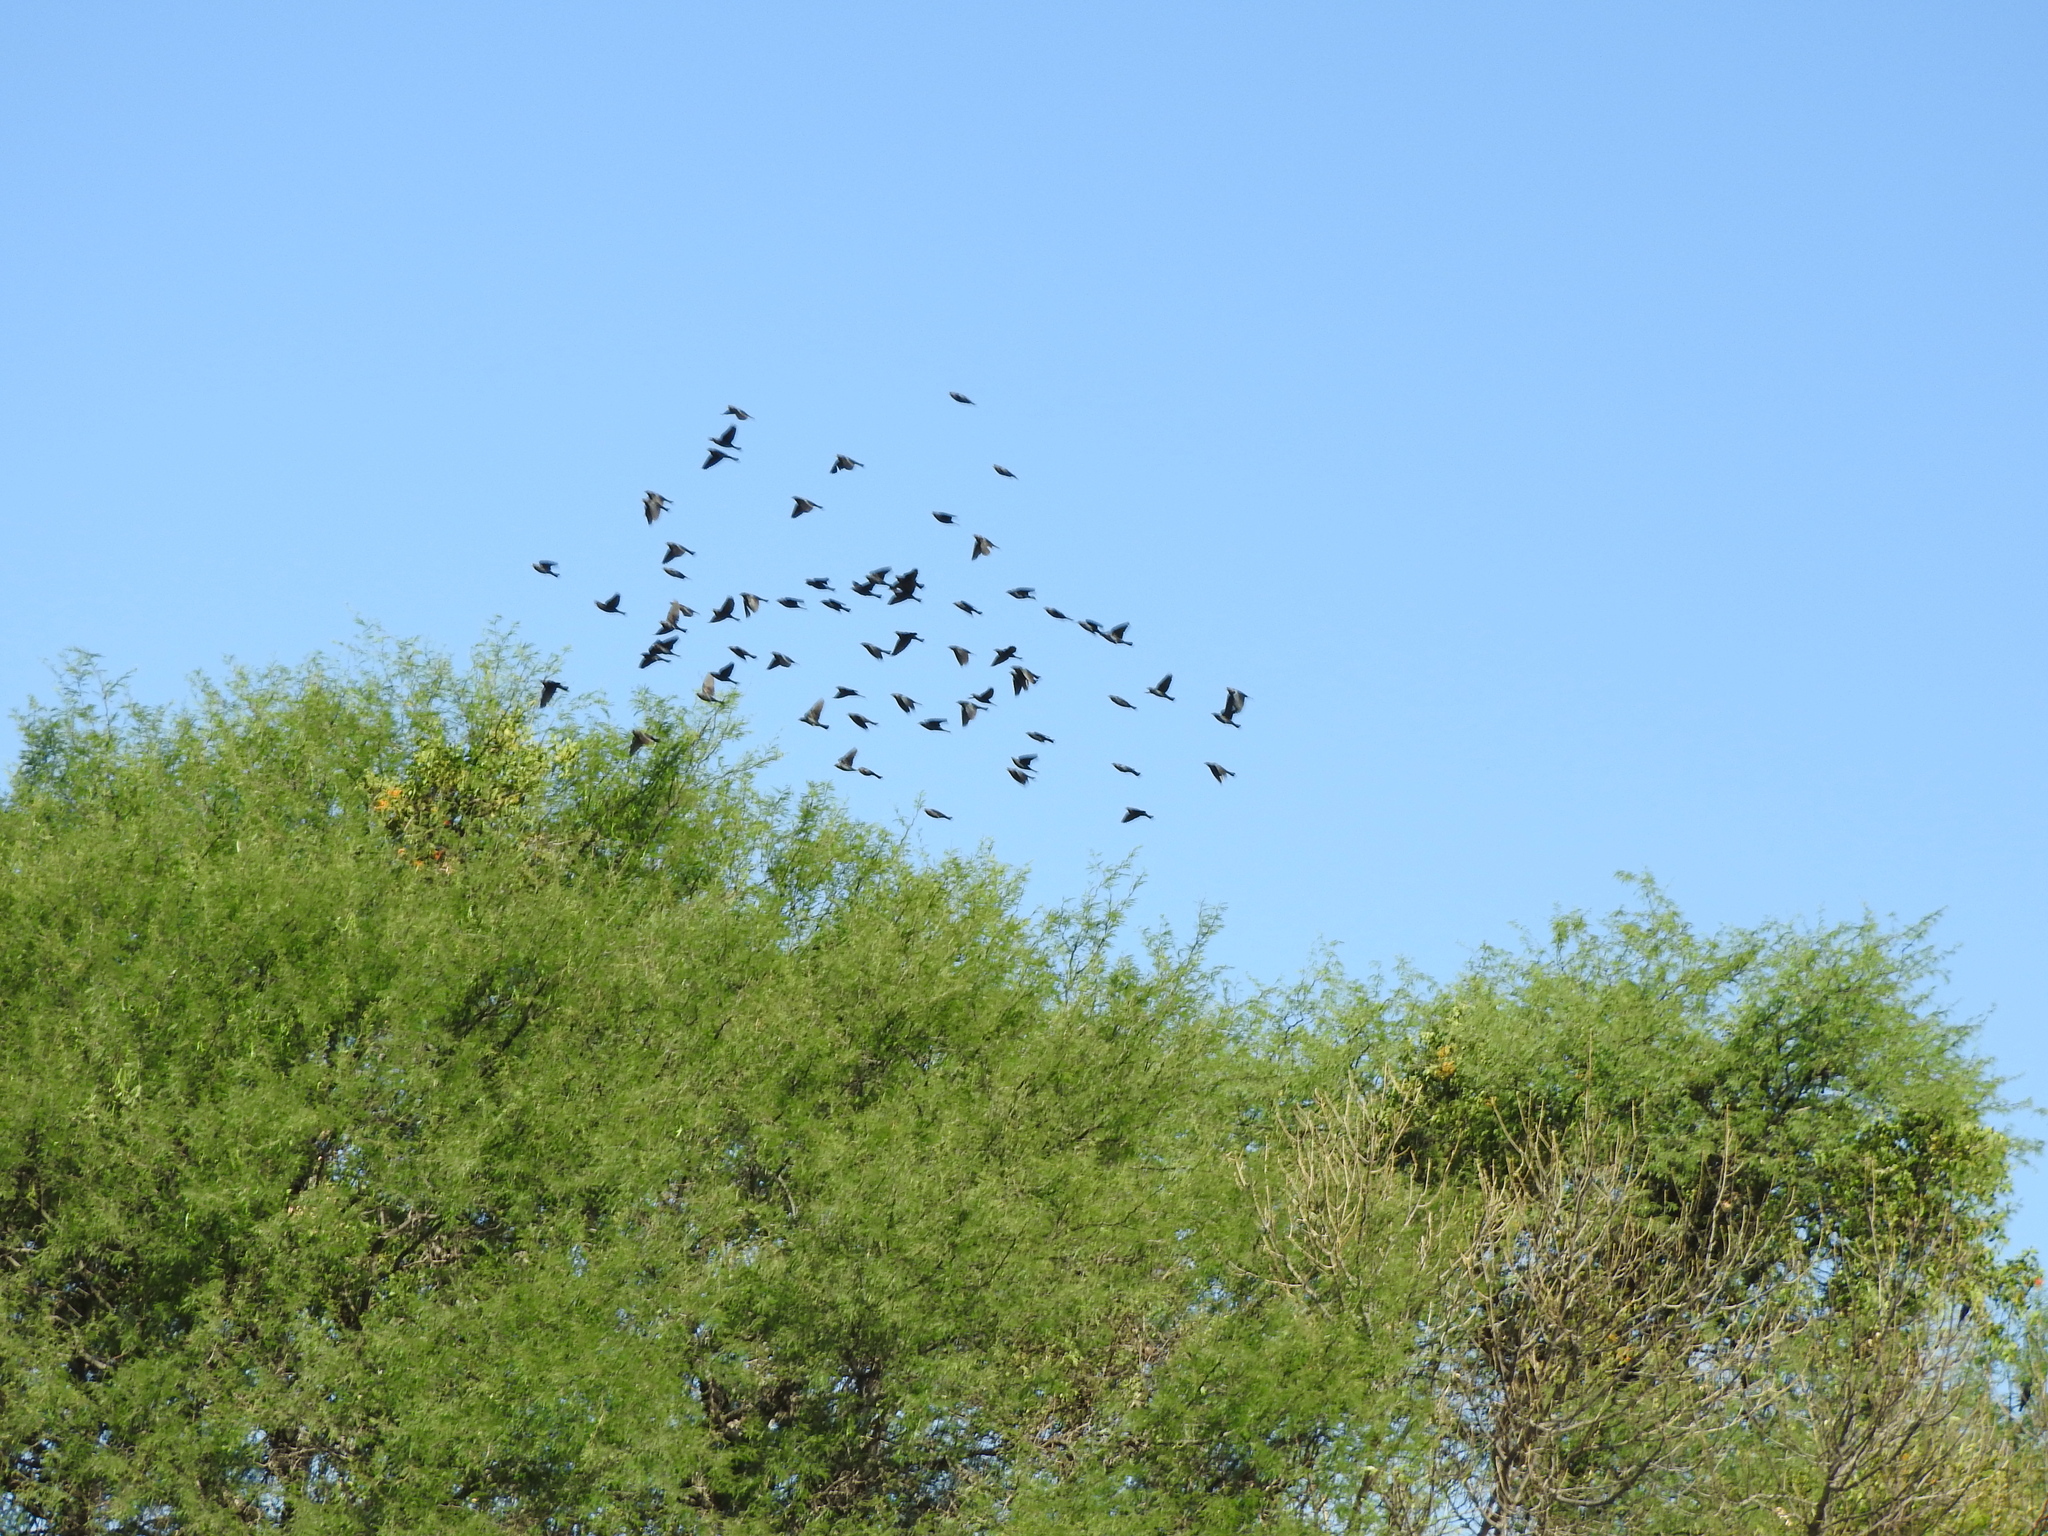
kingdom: Animalia
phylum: Chordata
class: Aves
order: Passeriformes
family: Icteridae
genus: Molothrus
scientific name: Molothrus ater
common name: Brown-headed cowbird
